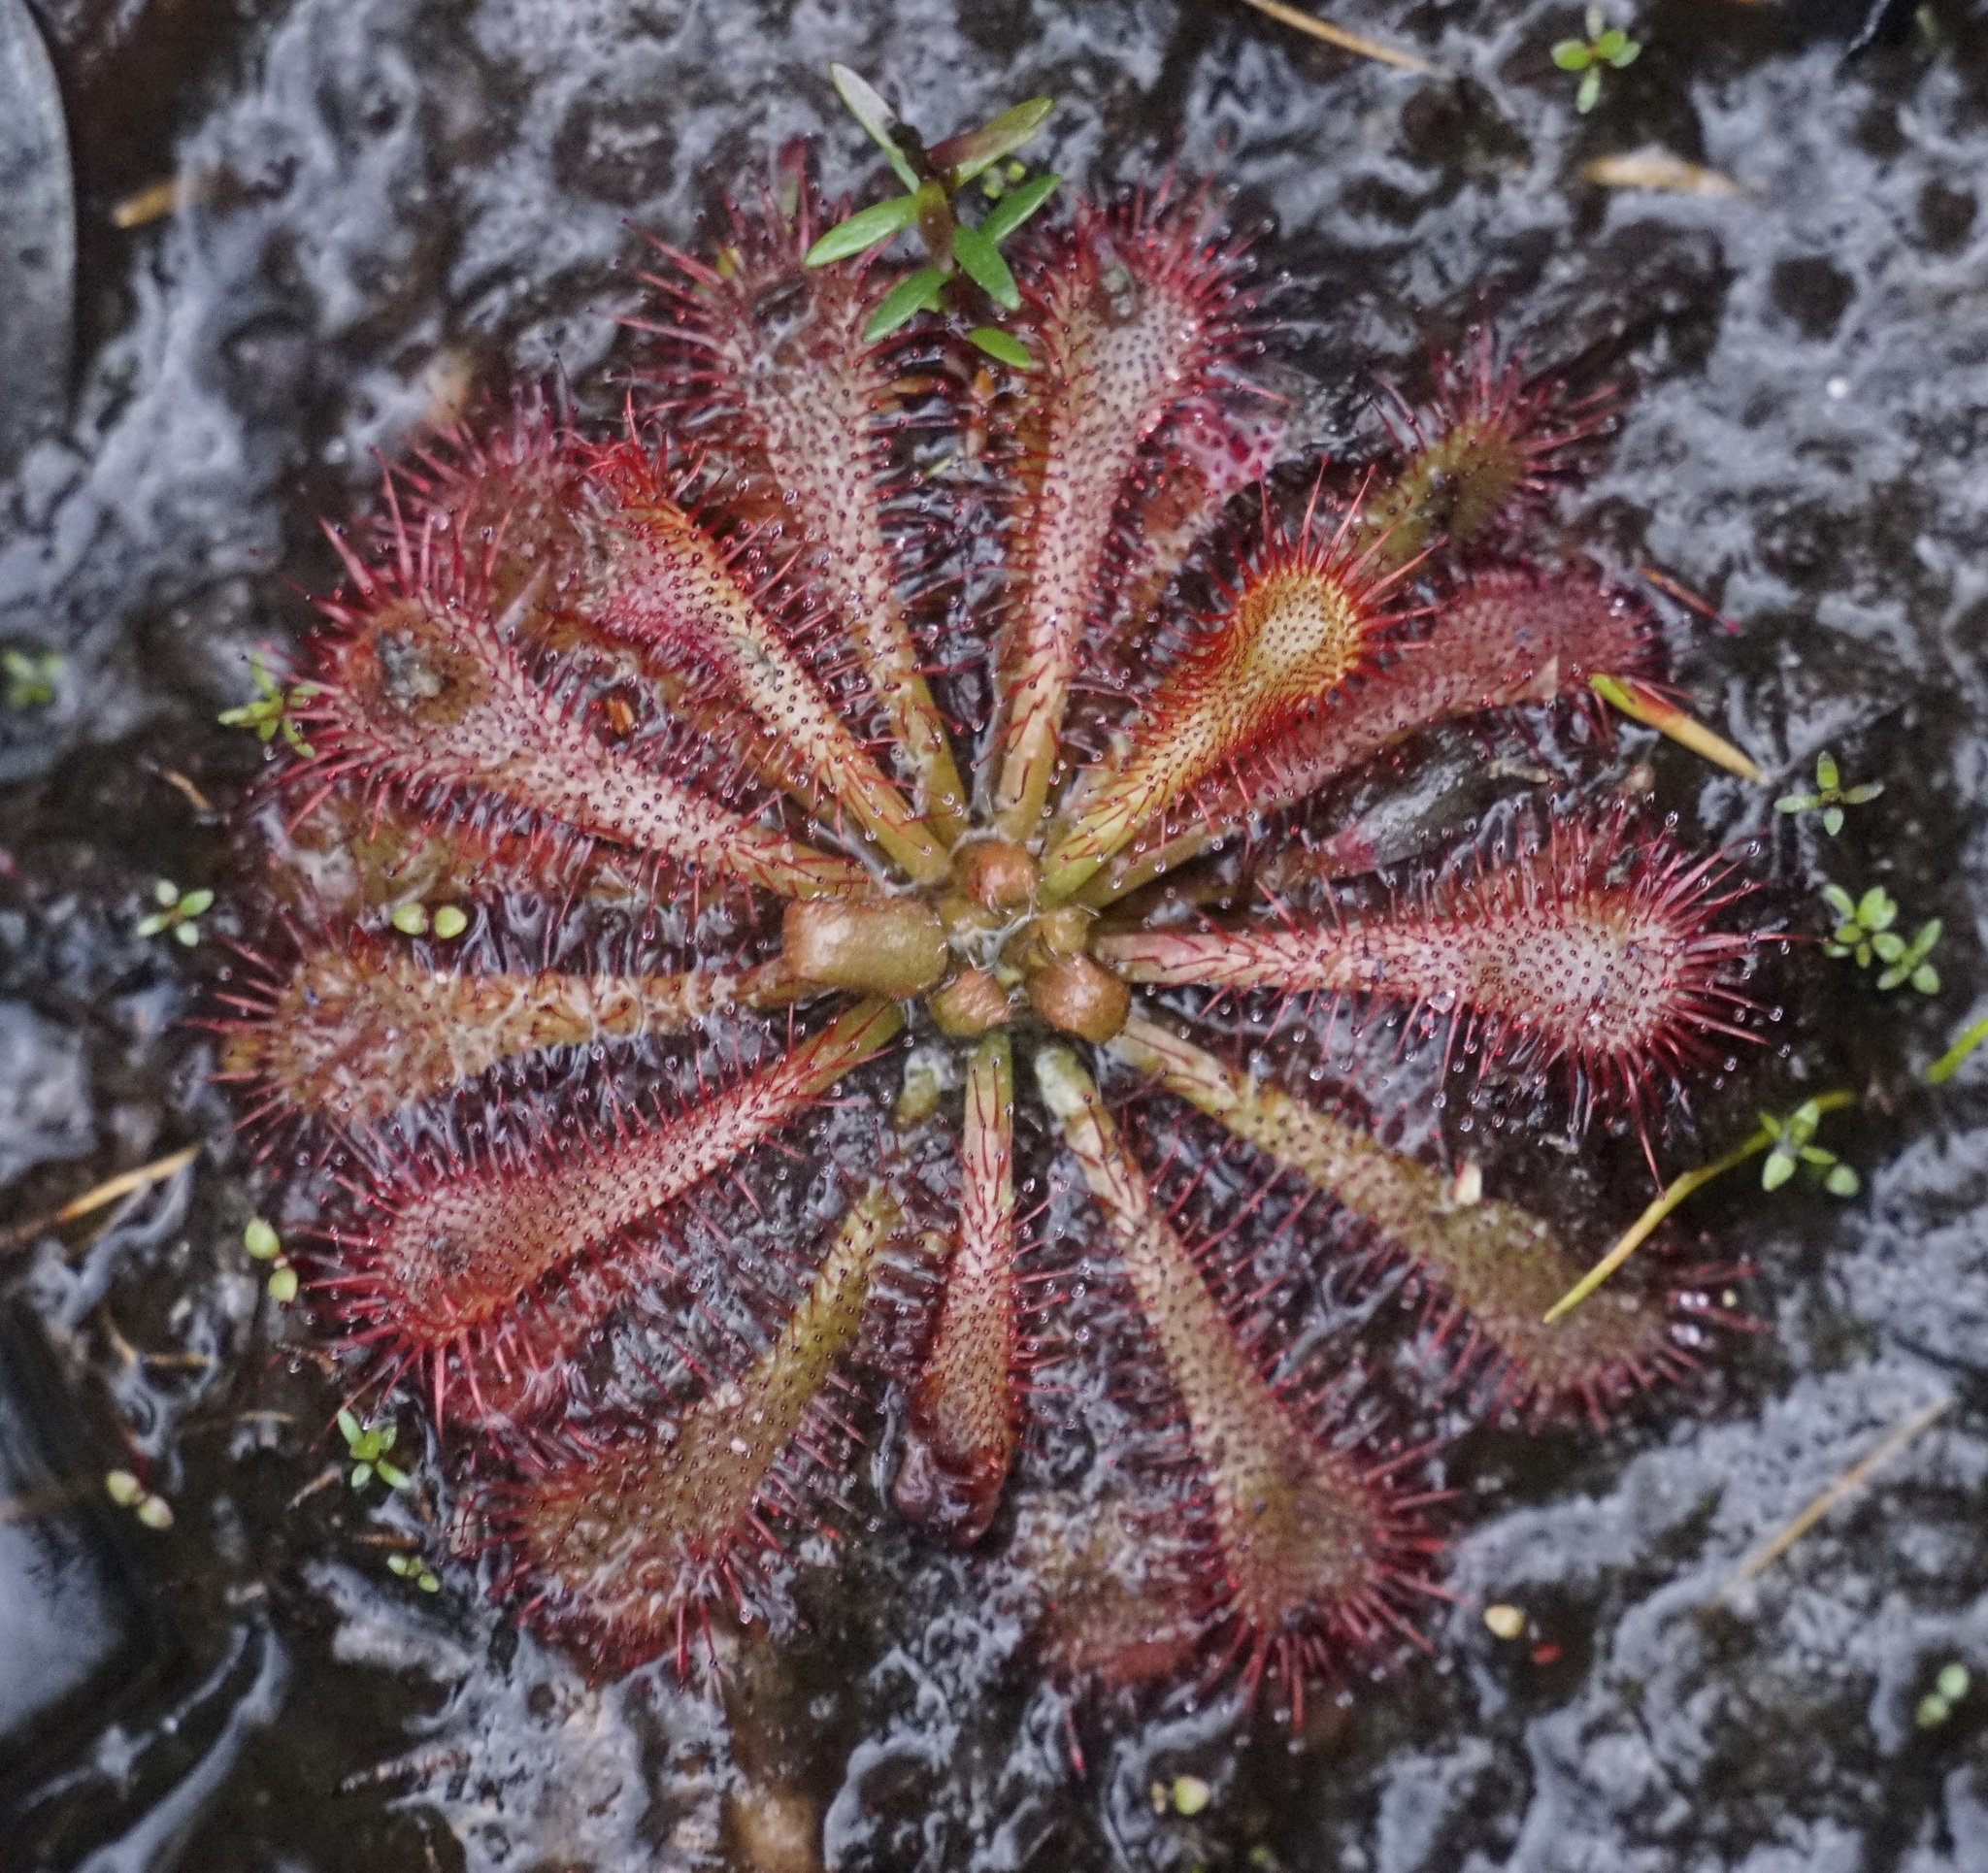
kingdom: Plantae
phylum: Tracheophyta
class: Magnoliopsida
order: Caryophyllales
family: Droseraceae
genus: Drosera
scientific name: Drosera spatulata
